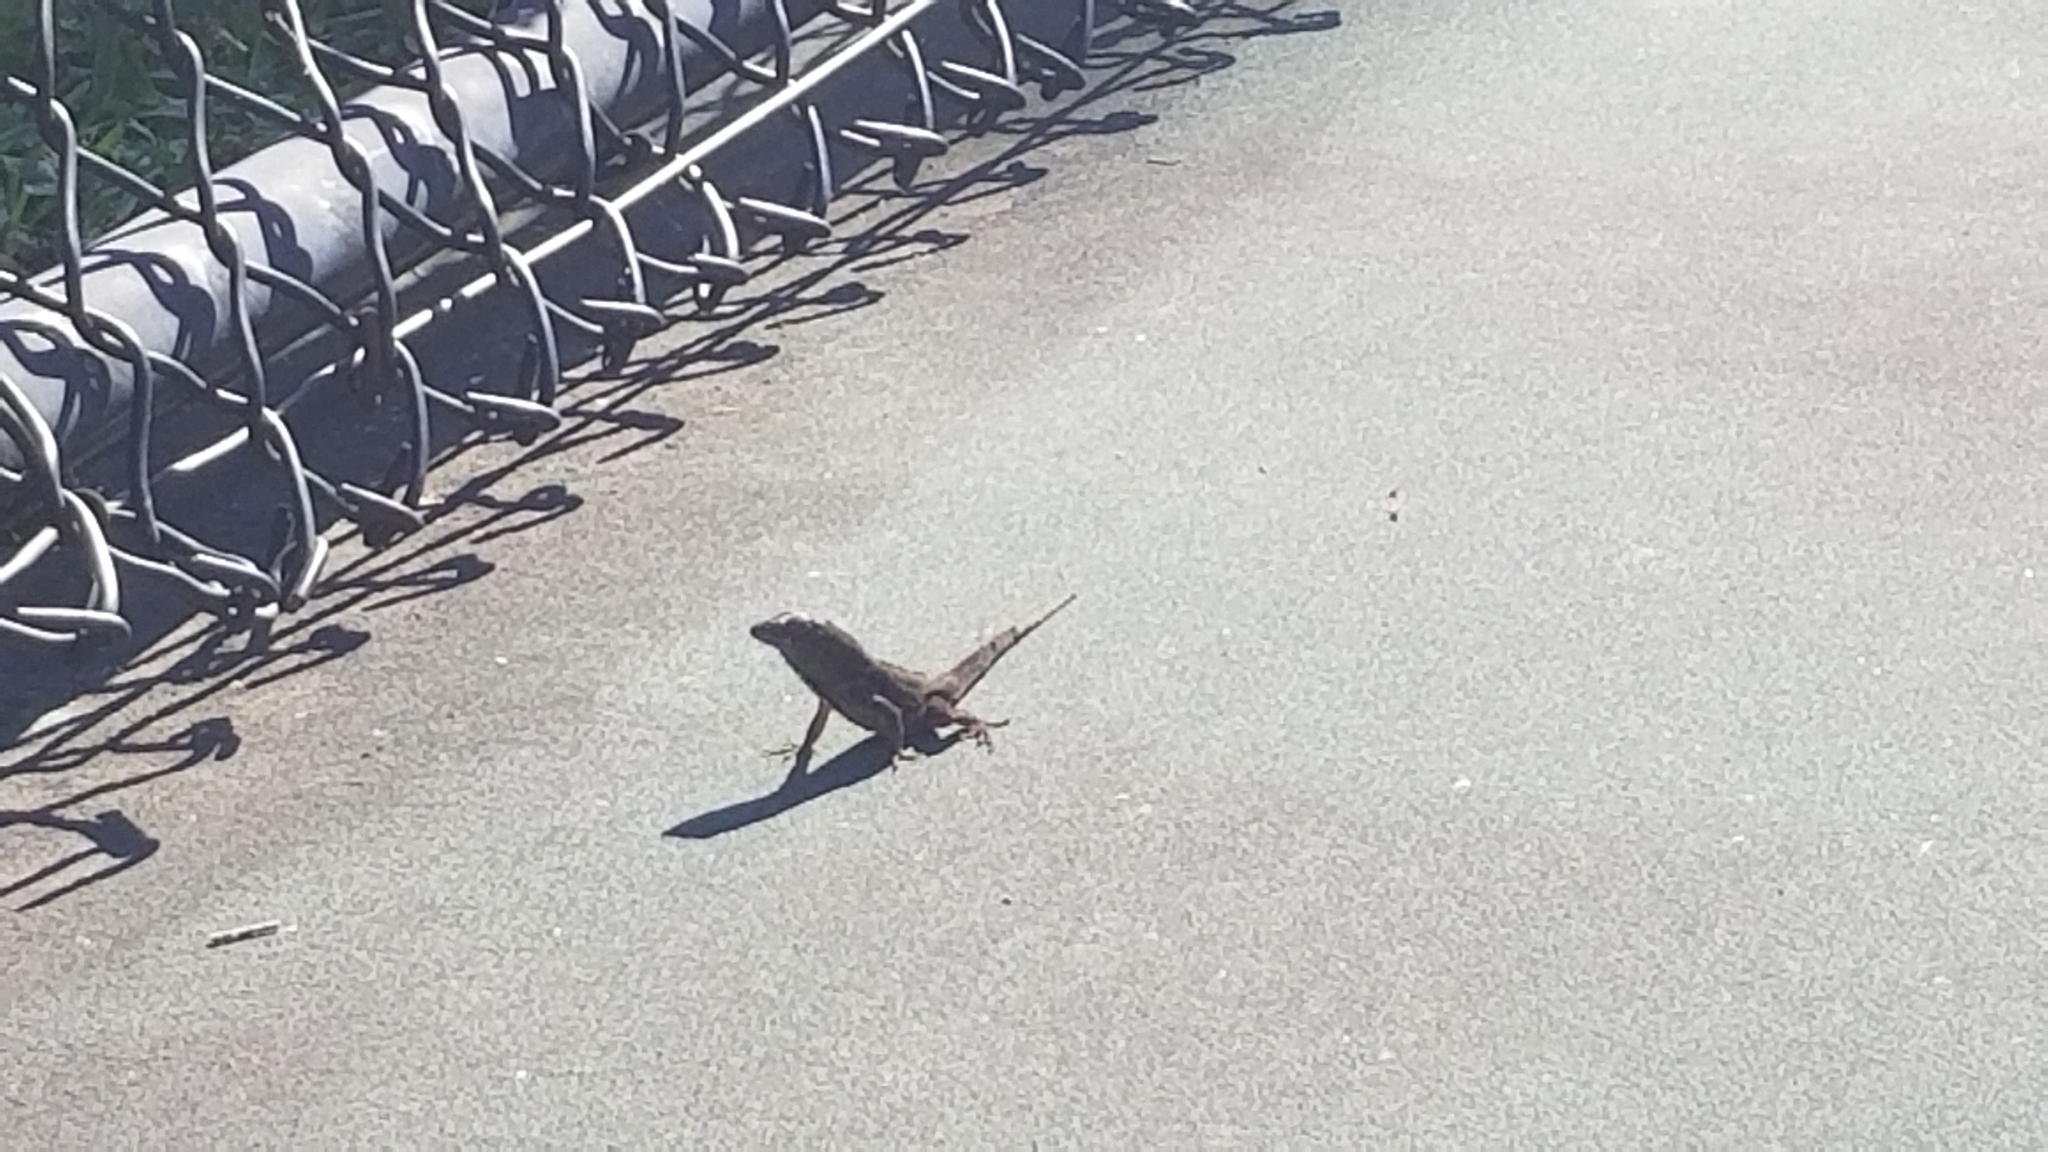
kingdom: Animalia
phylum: Chordata
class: Squamata
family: Dactyloidae
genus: Anolis
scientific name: Anolis sagrei
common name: Brown anole
